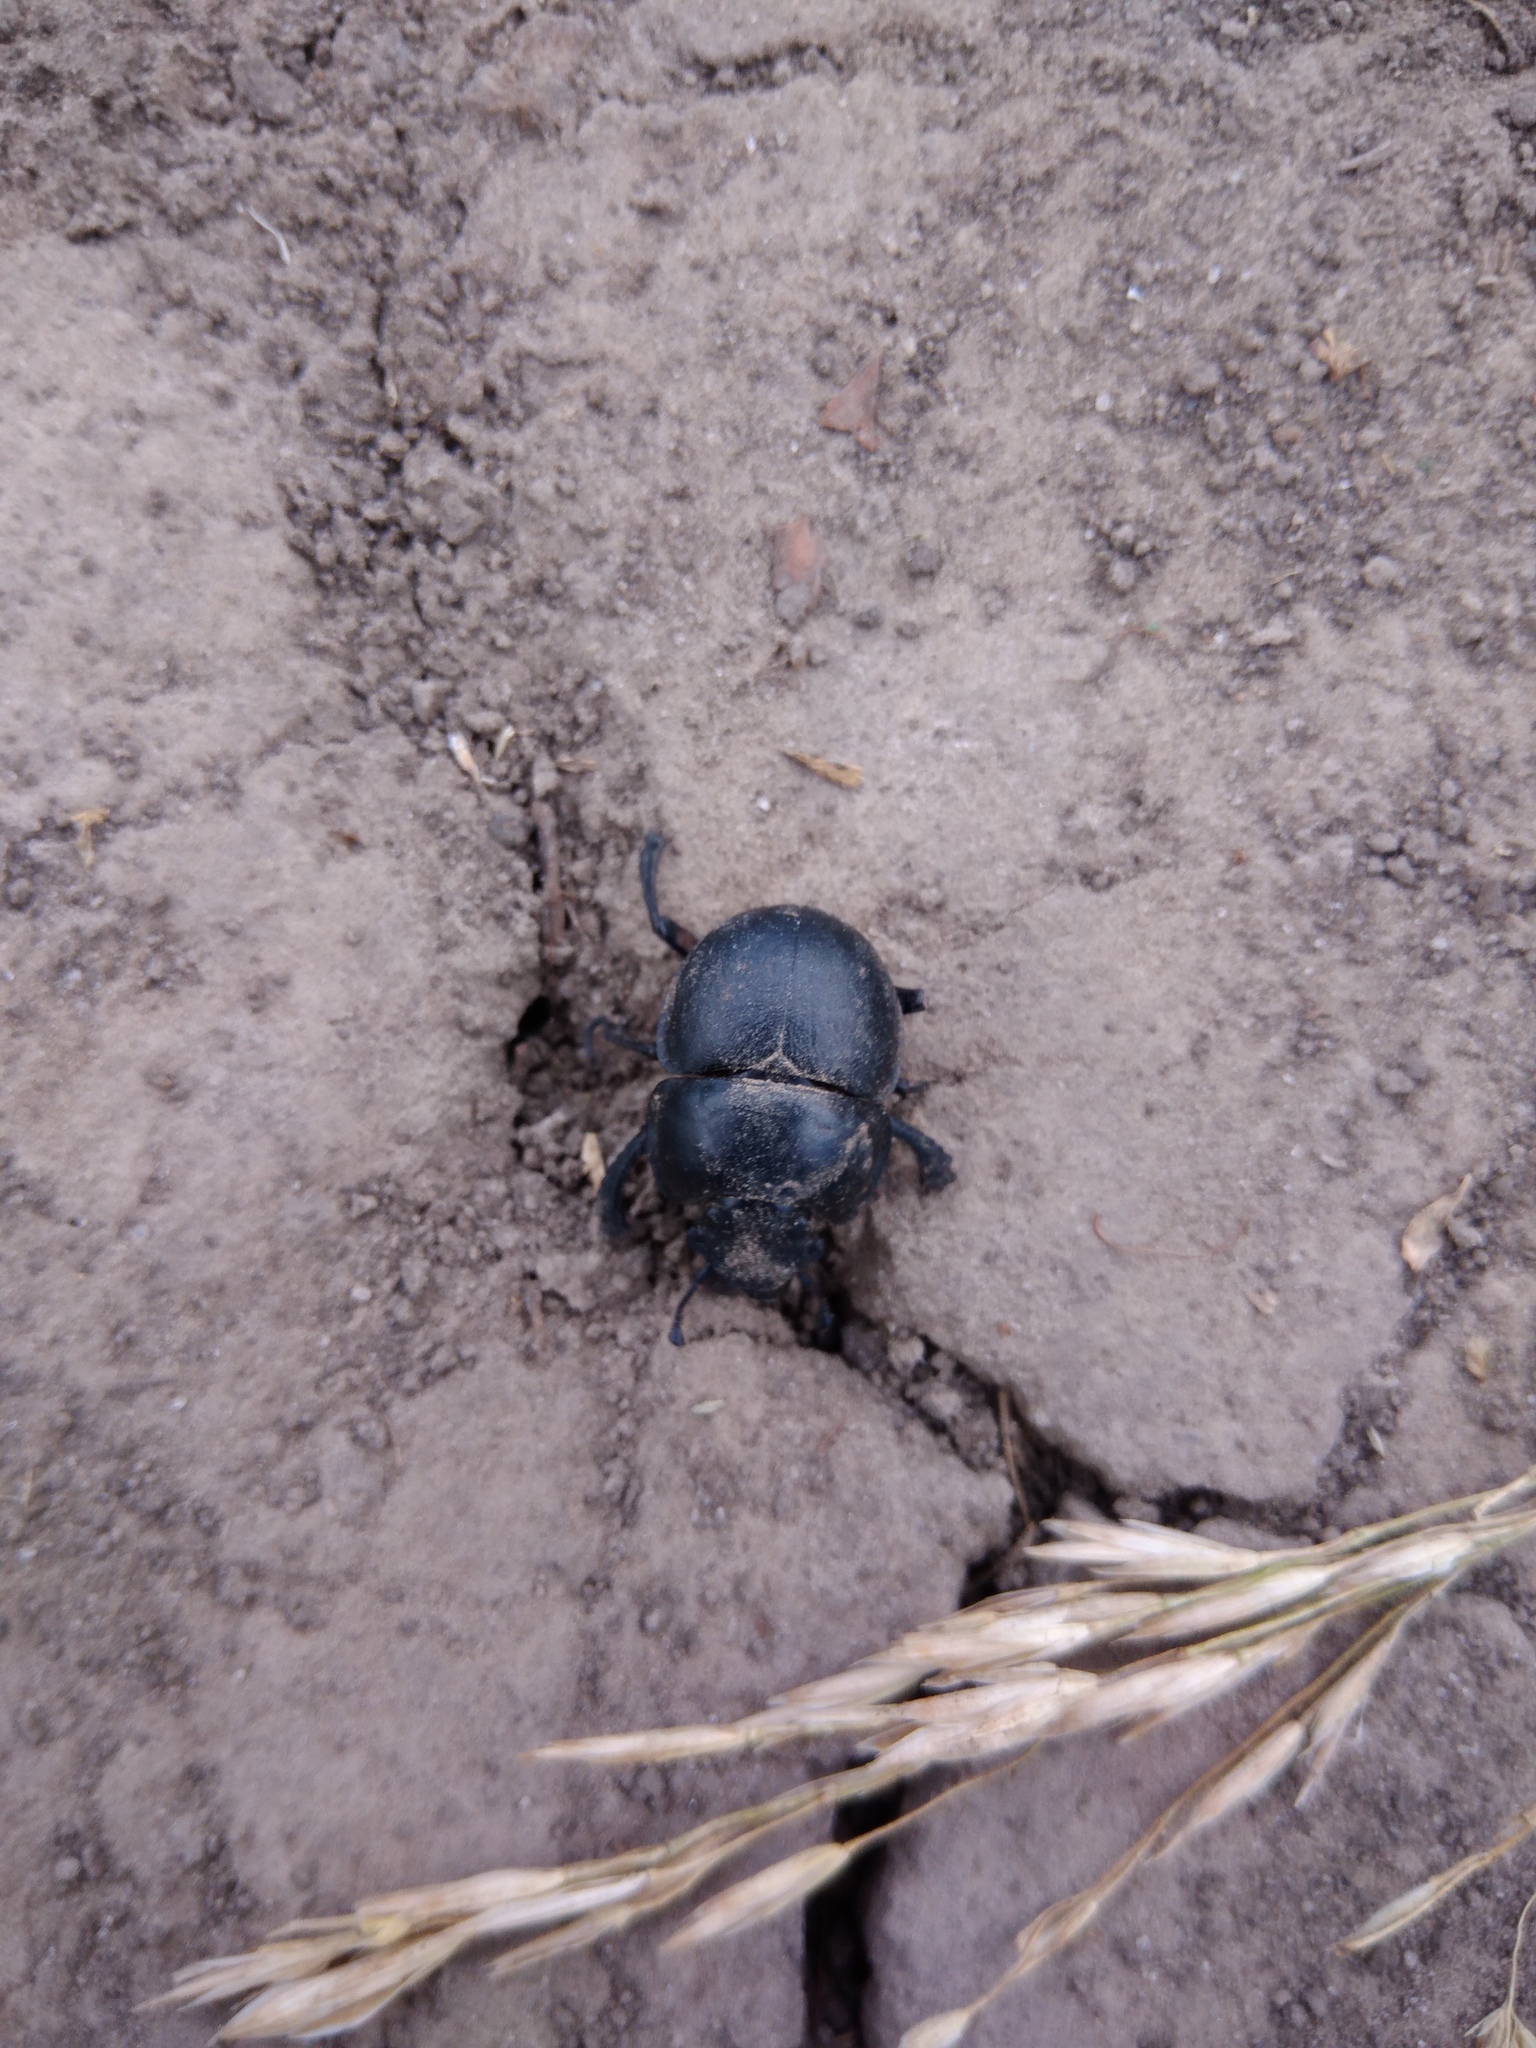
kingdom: Animalia
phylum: Arthropoda
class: Insecta
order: Coleoptera
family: Geotrupidae
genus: Lethrus
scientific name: Lethrus apterus
